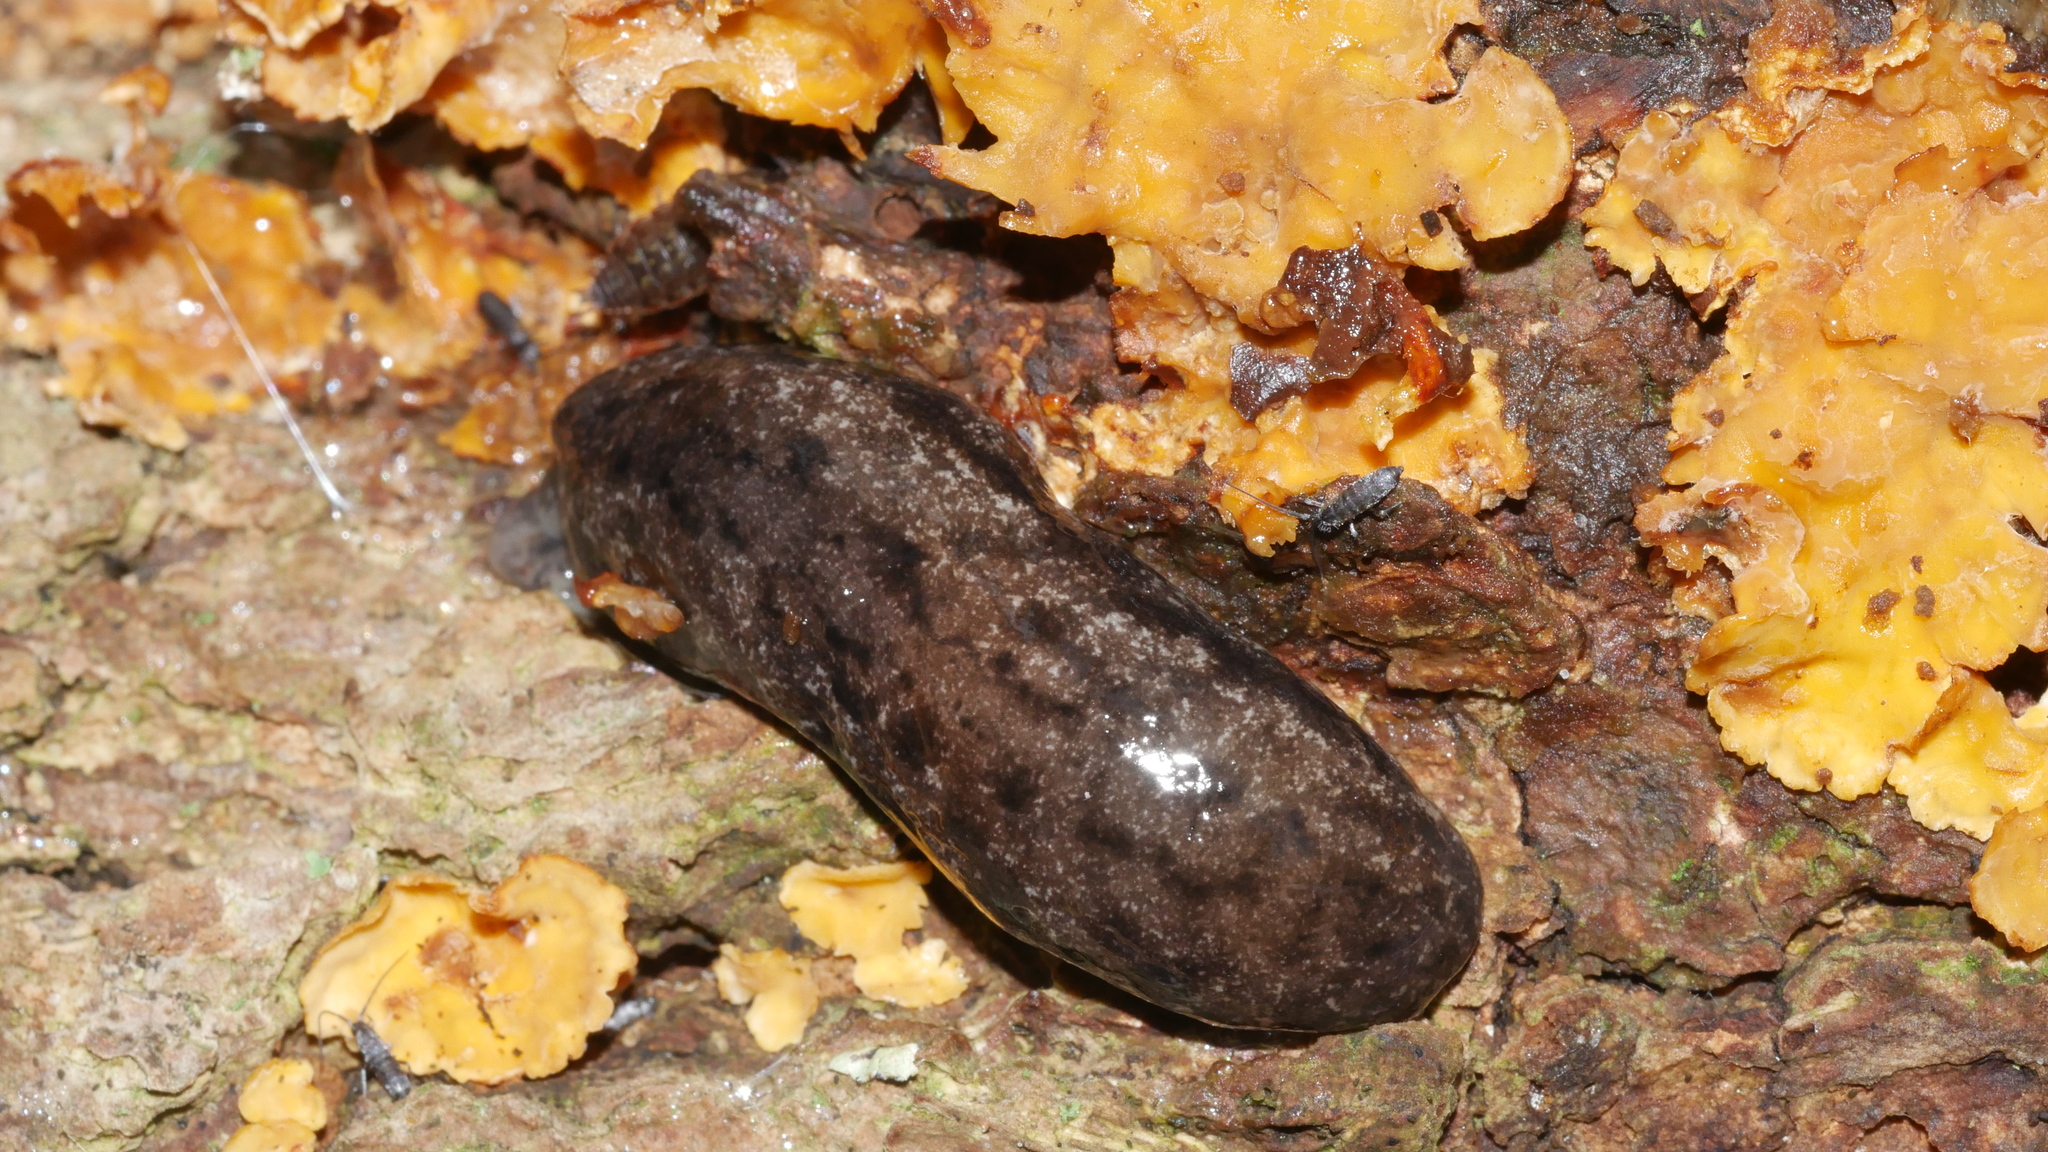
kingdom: Animalia
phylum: Mollusca
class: Gastropoda
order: Stylommatophora
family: Philomycidae
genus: Megapallifera
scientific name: Megapallifera mutabilis
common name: Changeable mantleslug
